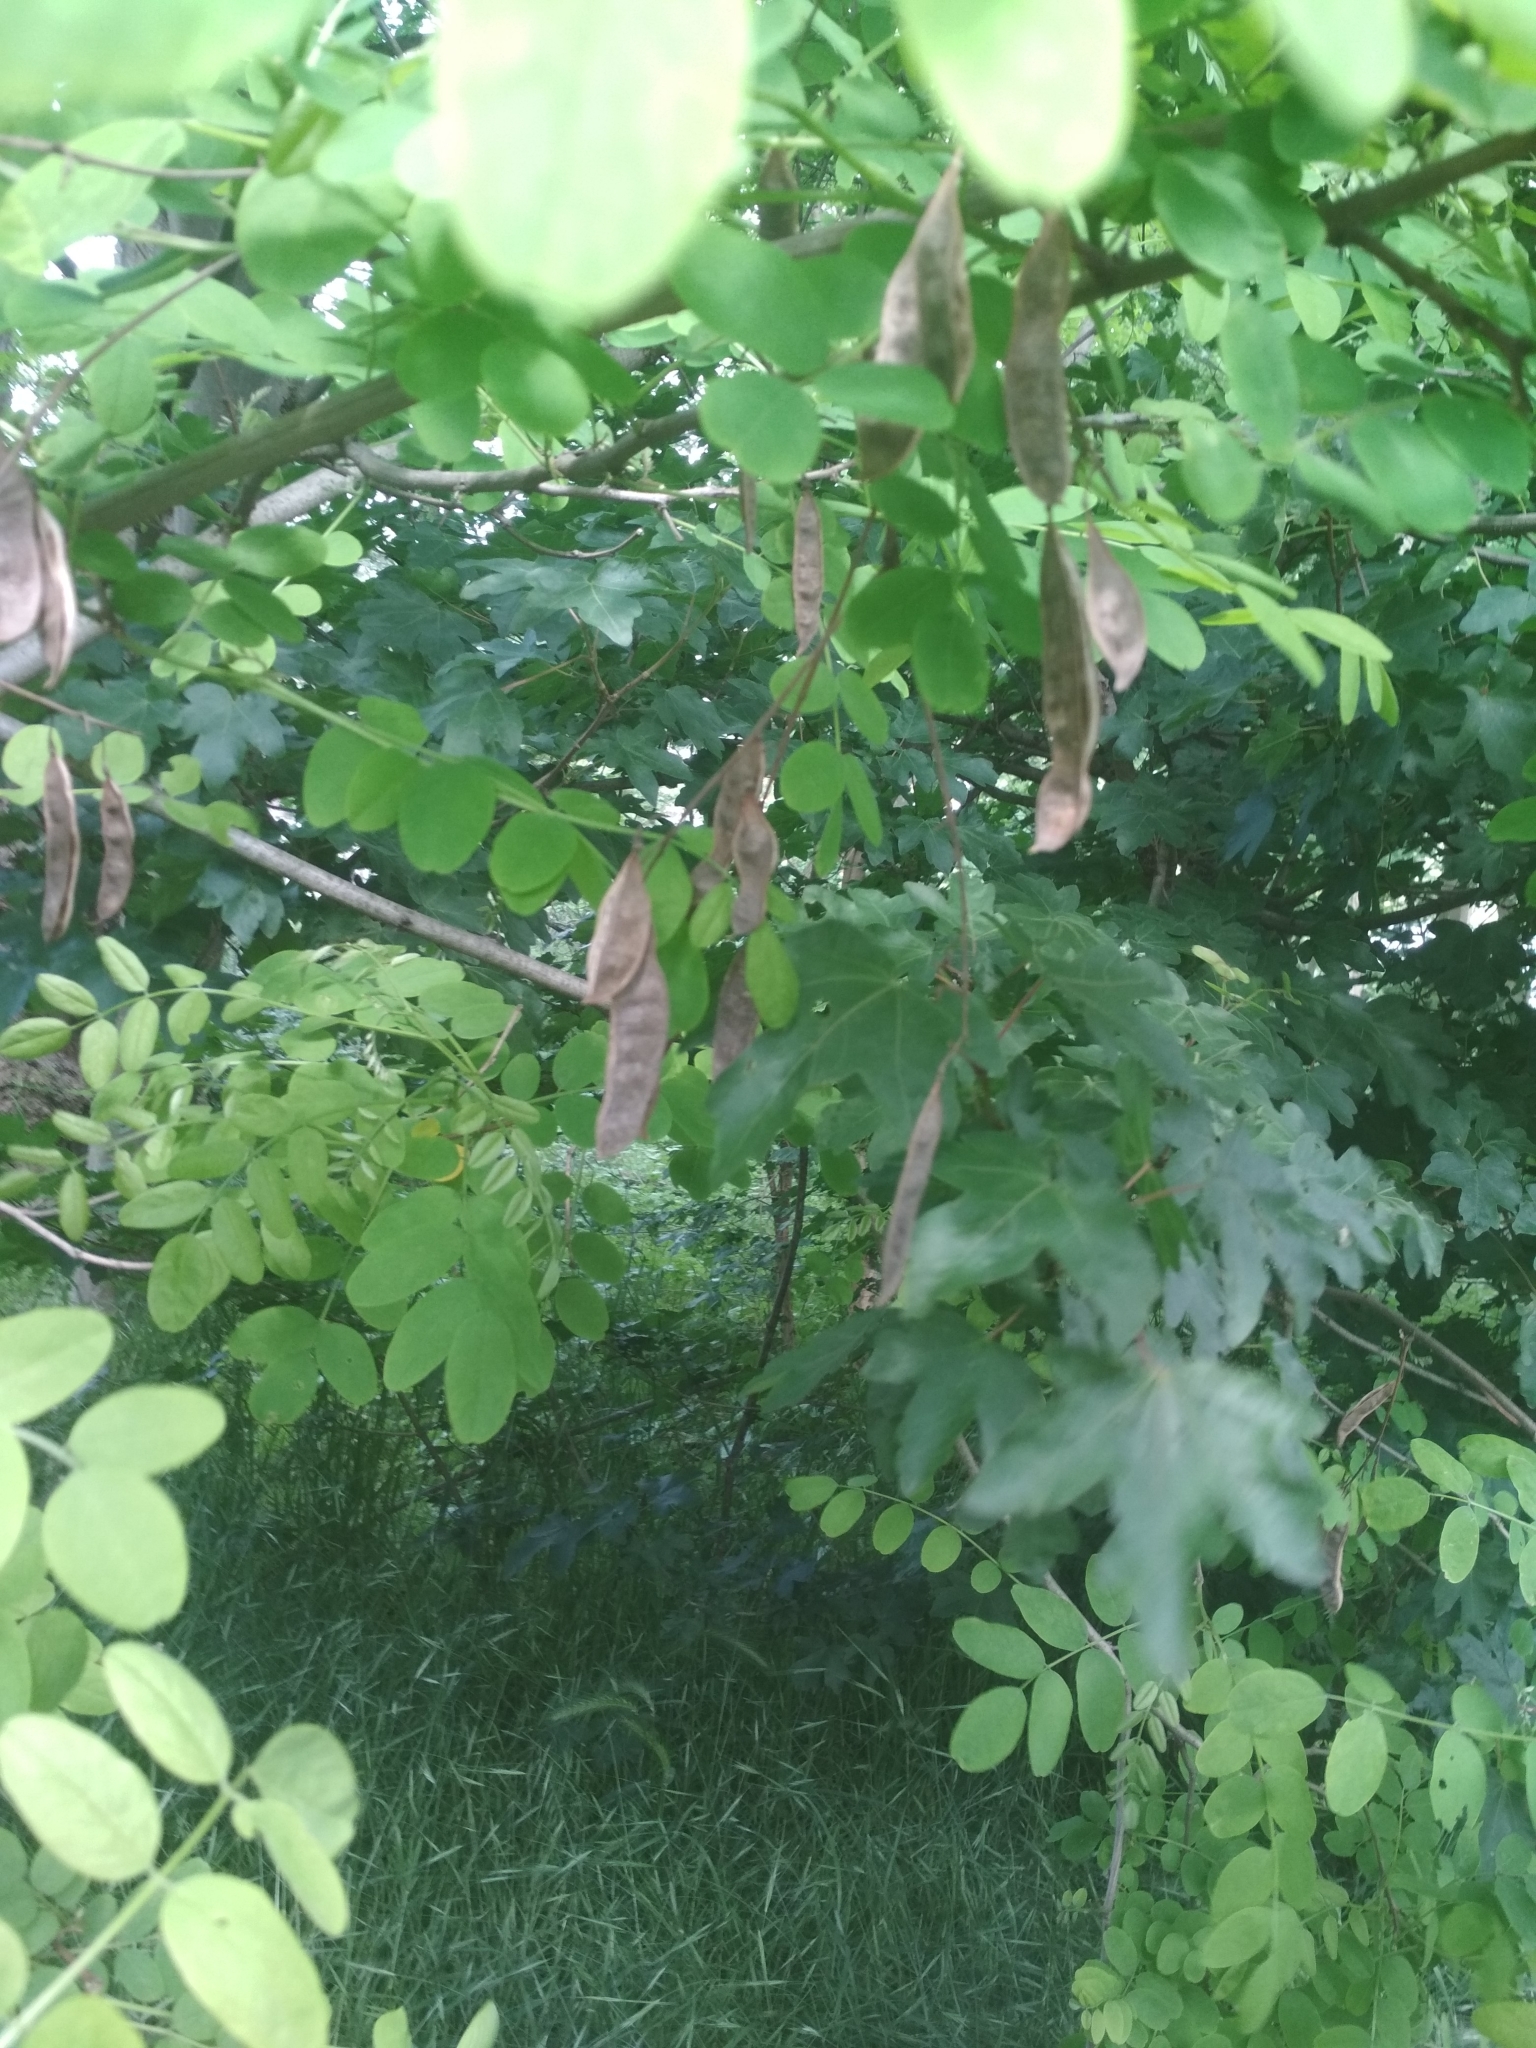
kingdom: Plantae
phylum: Tracheophyta
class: Magnoliopsida
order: Fabales
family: Fabaceae
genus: Robinia
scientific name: Robinia pseudoacacia
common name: Black locust
